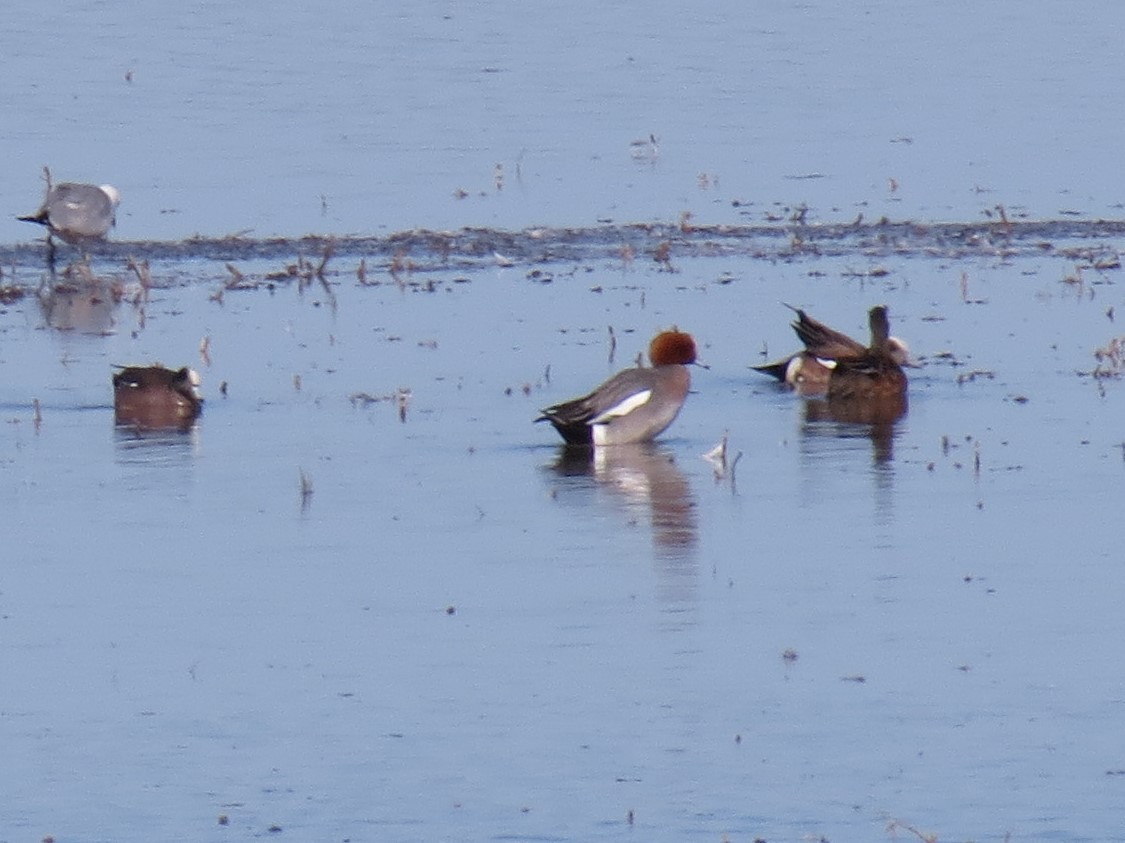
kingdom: Animalia
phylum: Chordata
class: Aves
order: Anseriformes
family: Anatidae
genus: Mareca
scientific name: Mareca americana
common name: American wigeon
